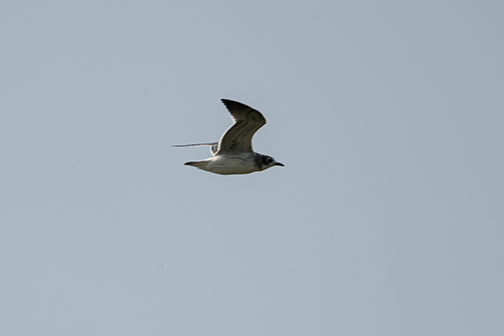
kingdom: Animalia
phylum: Chordata
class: Aves
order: Charadriiformes
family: Laridae
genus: Leucophaeus
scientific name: Leucophaeus pipixcan
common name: Franklin's gull
